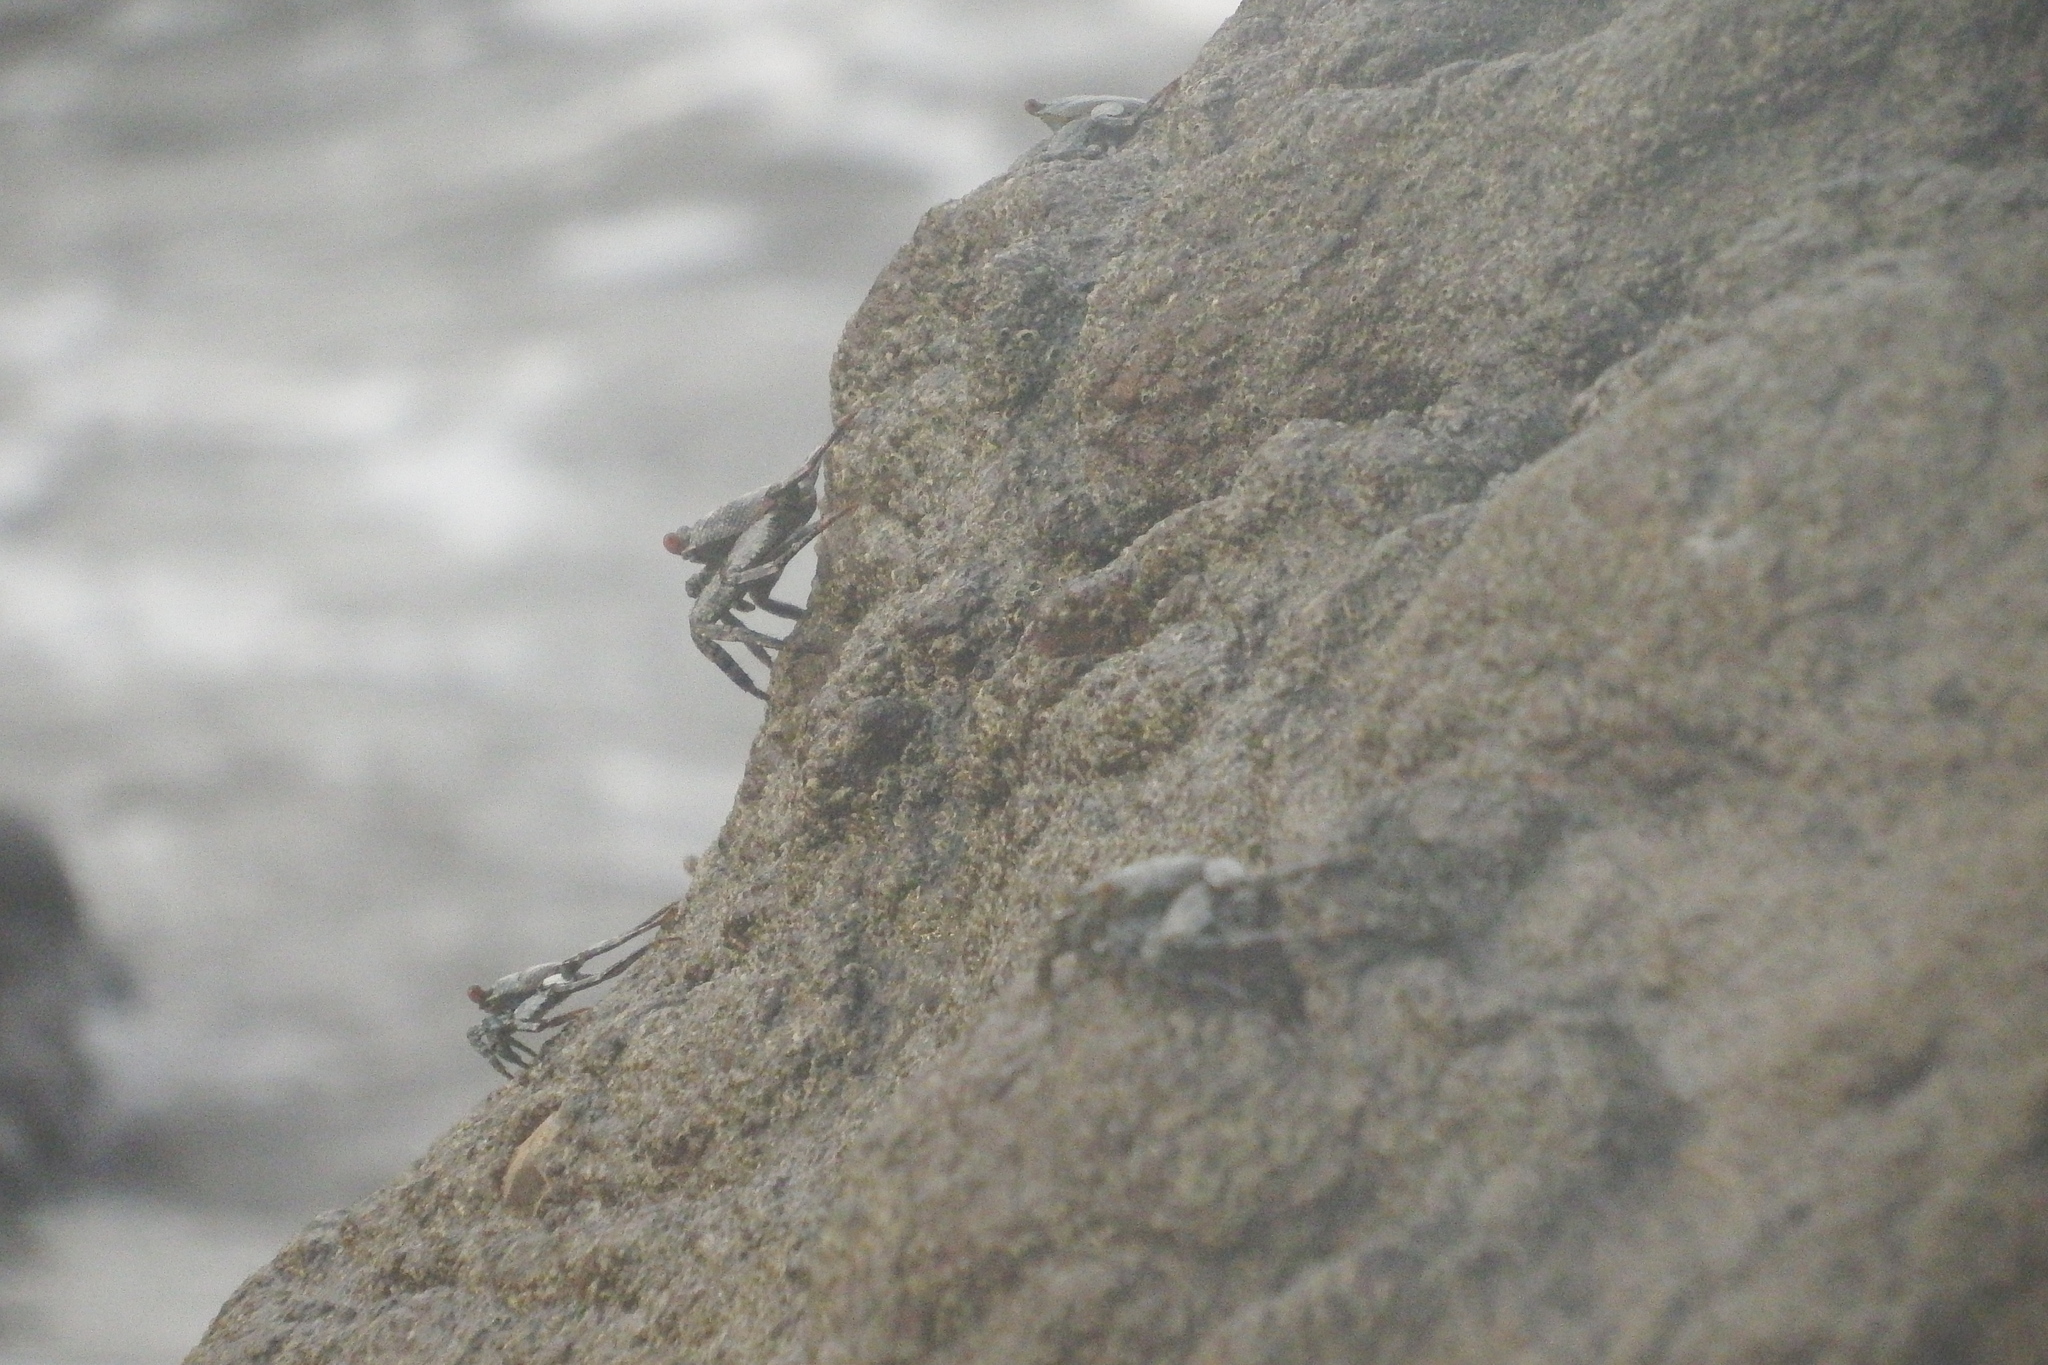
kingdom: Animalia
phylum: Arthropoda
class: Malacostraca
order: Decapoda
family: Grapsidae
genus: Grapsus
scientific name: Grapsus grapsus
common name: Sally lightfoot
